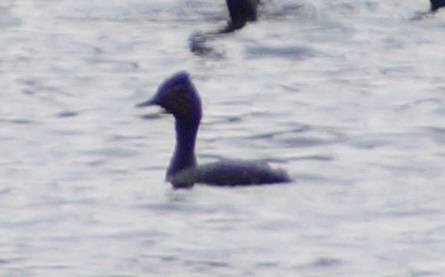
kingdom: Animalia
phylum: Chordata
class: Aves
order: Podicipediformes
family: Podicipedidae
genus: Podiceps
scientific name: Podiceps nigricollis
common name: Black-necked grebe
